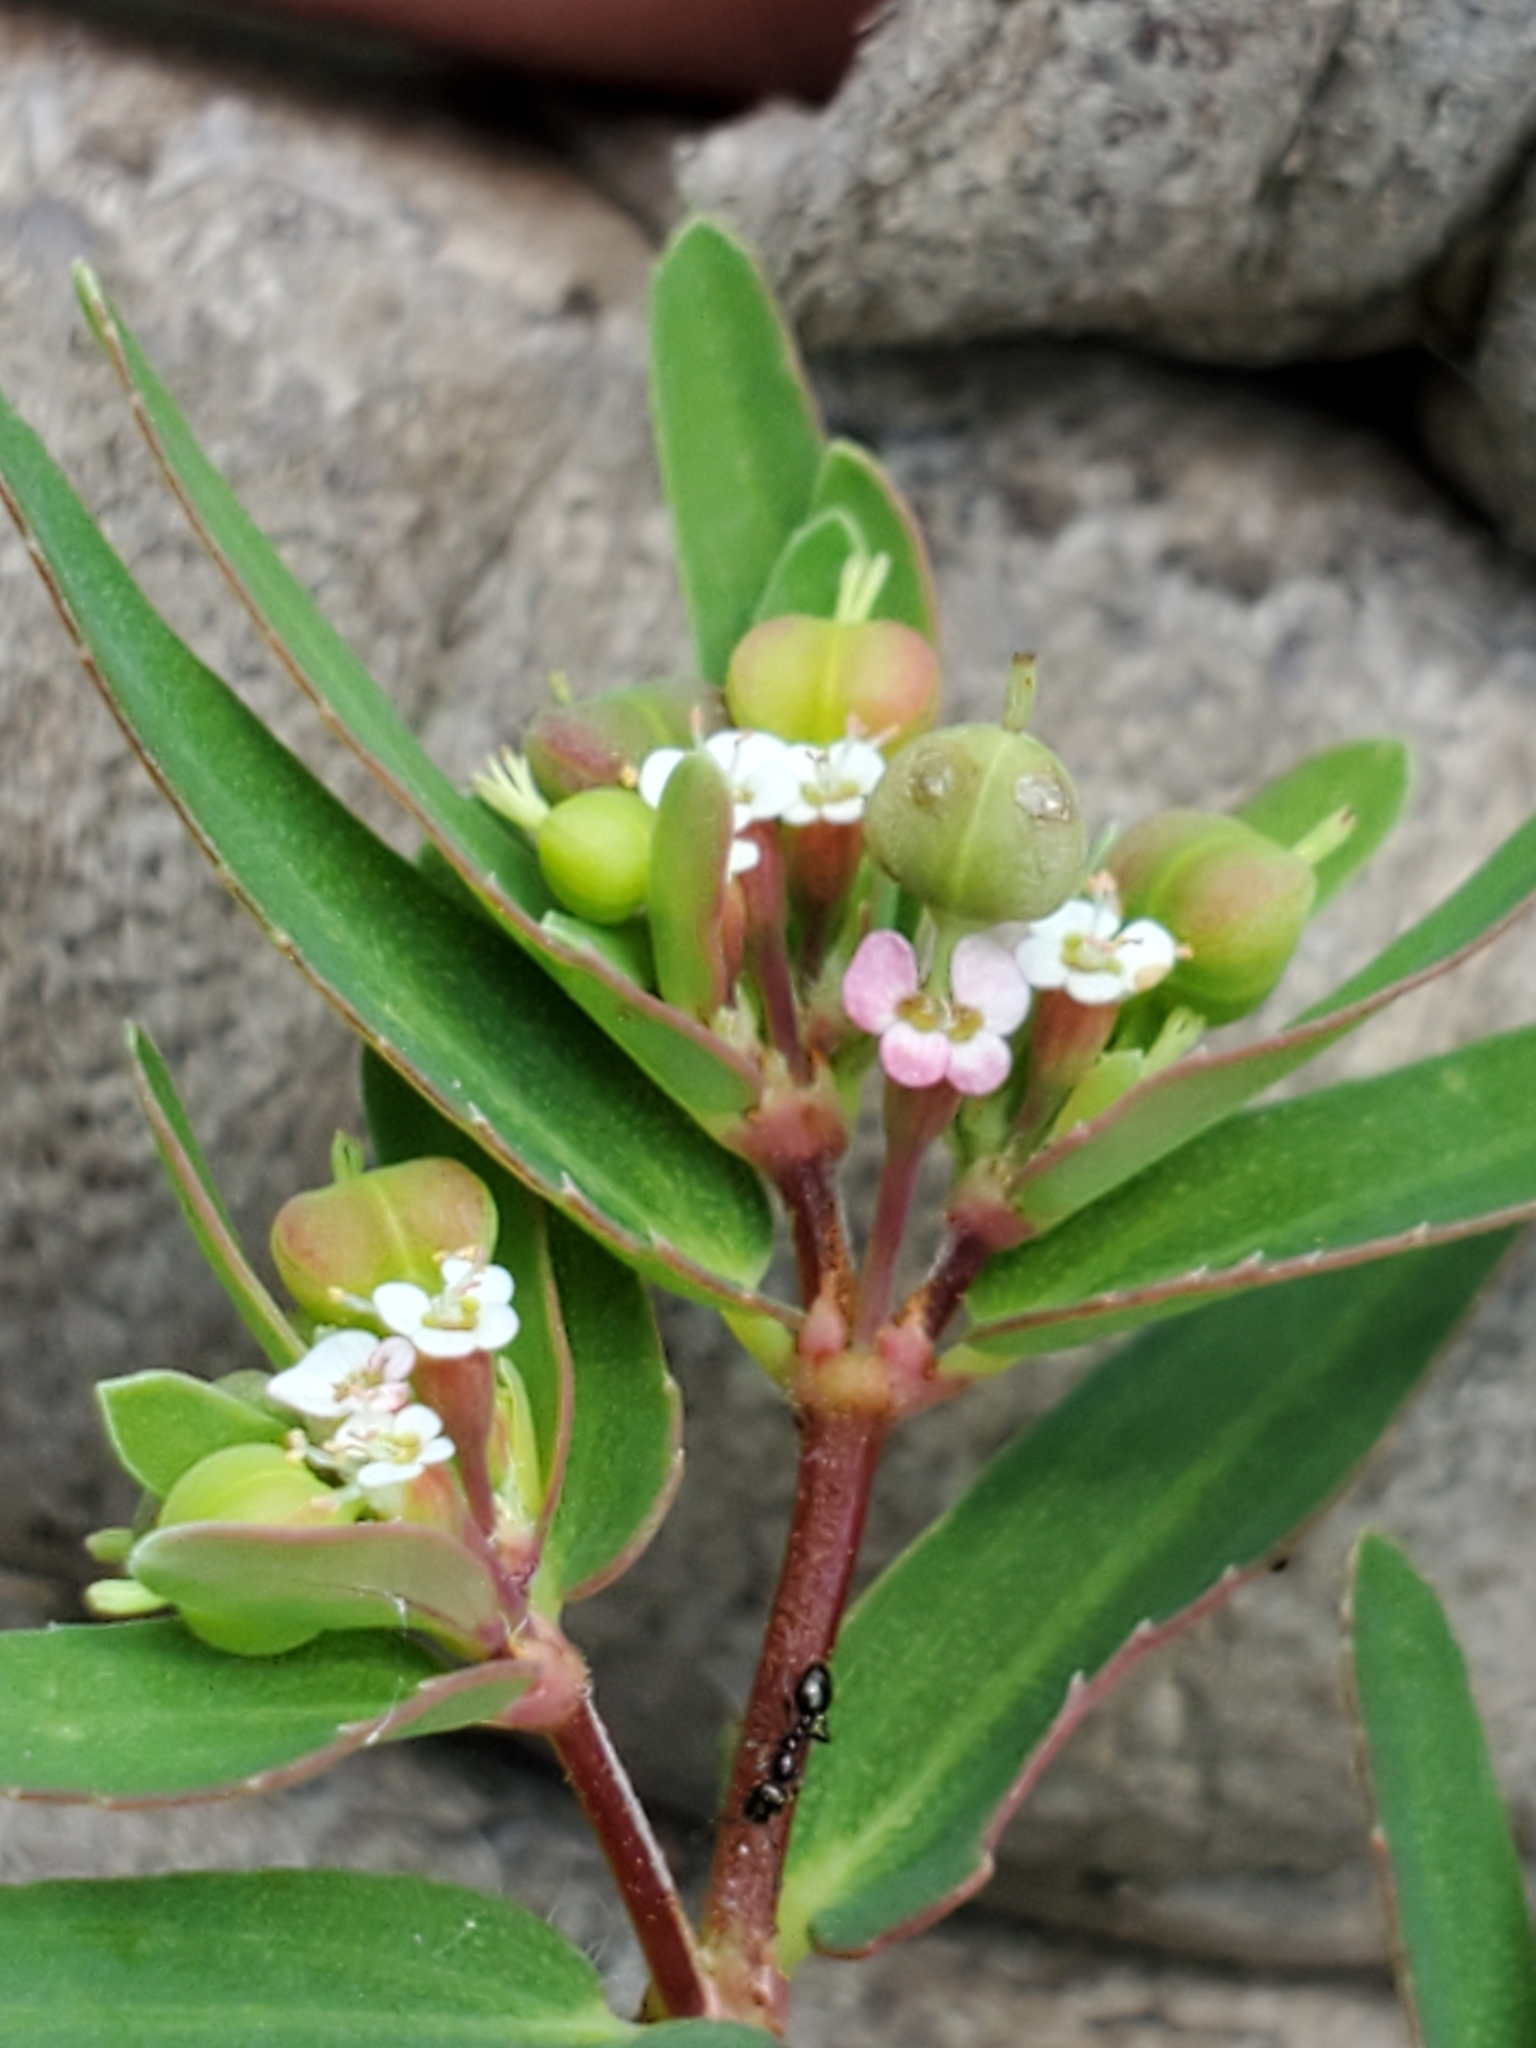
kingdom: Plantae
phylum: Tracheophyta
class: Magnoliopsida
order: Malpighiales
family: Euphorbiaceae
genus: Euphorbia
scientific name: Euphorbia nutans
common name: Eyebane
